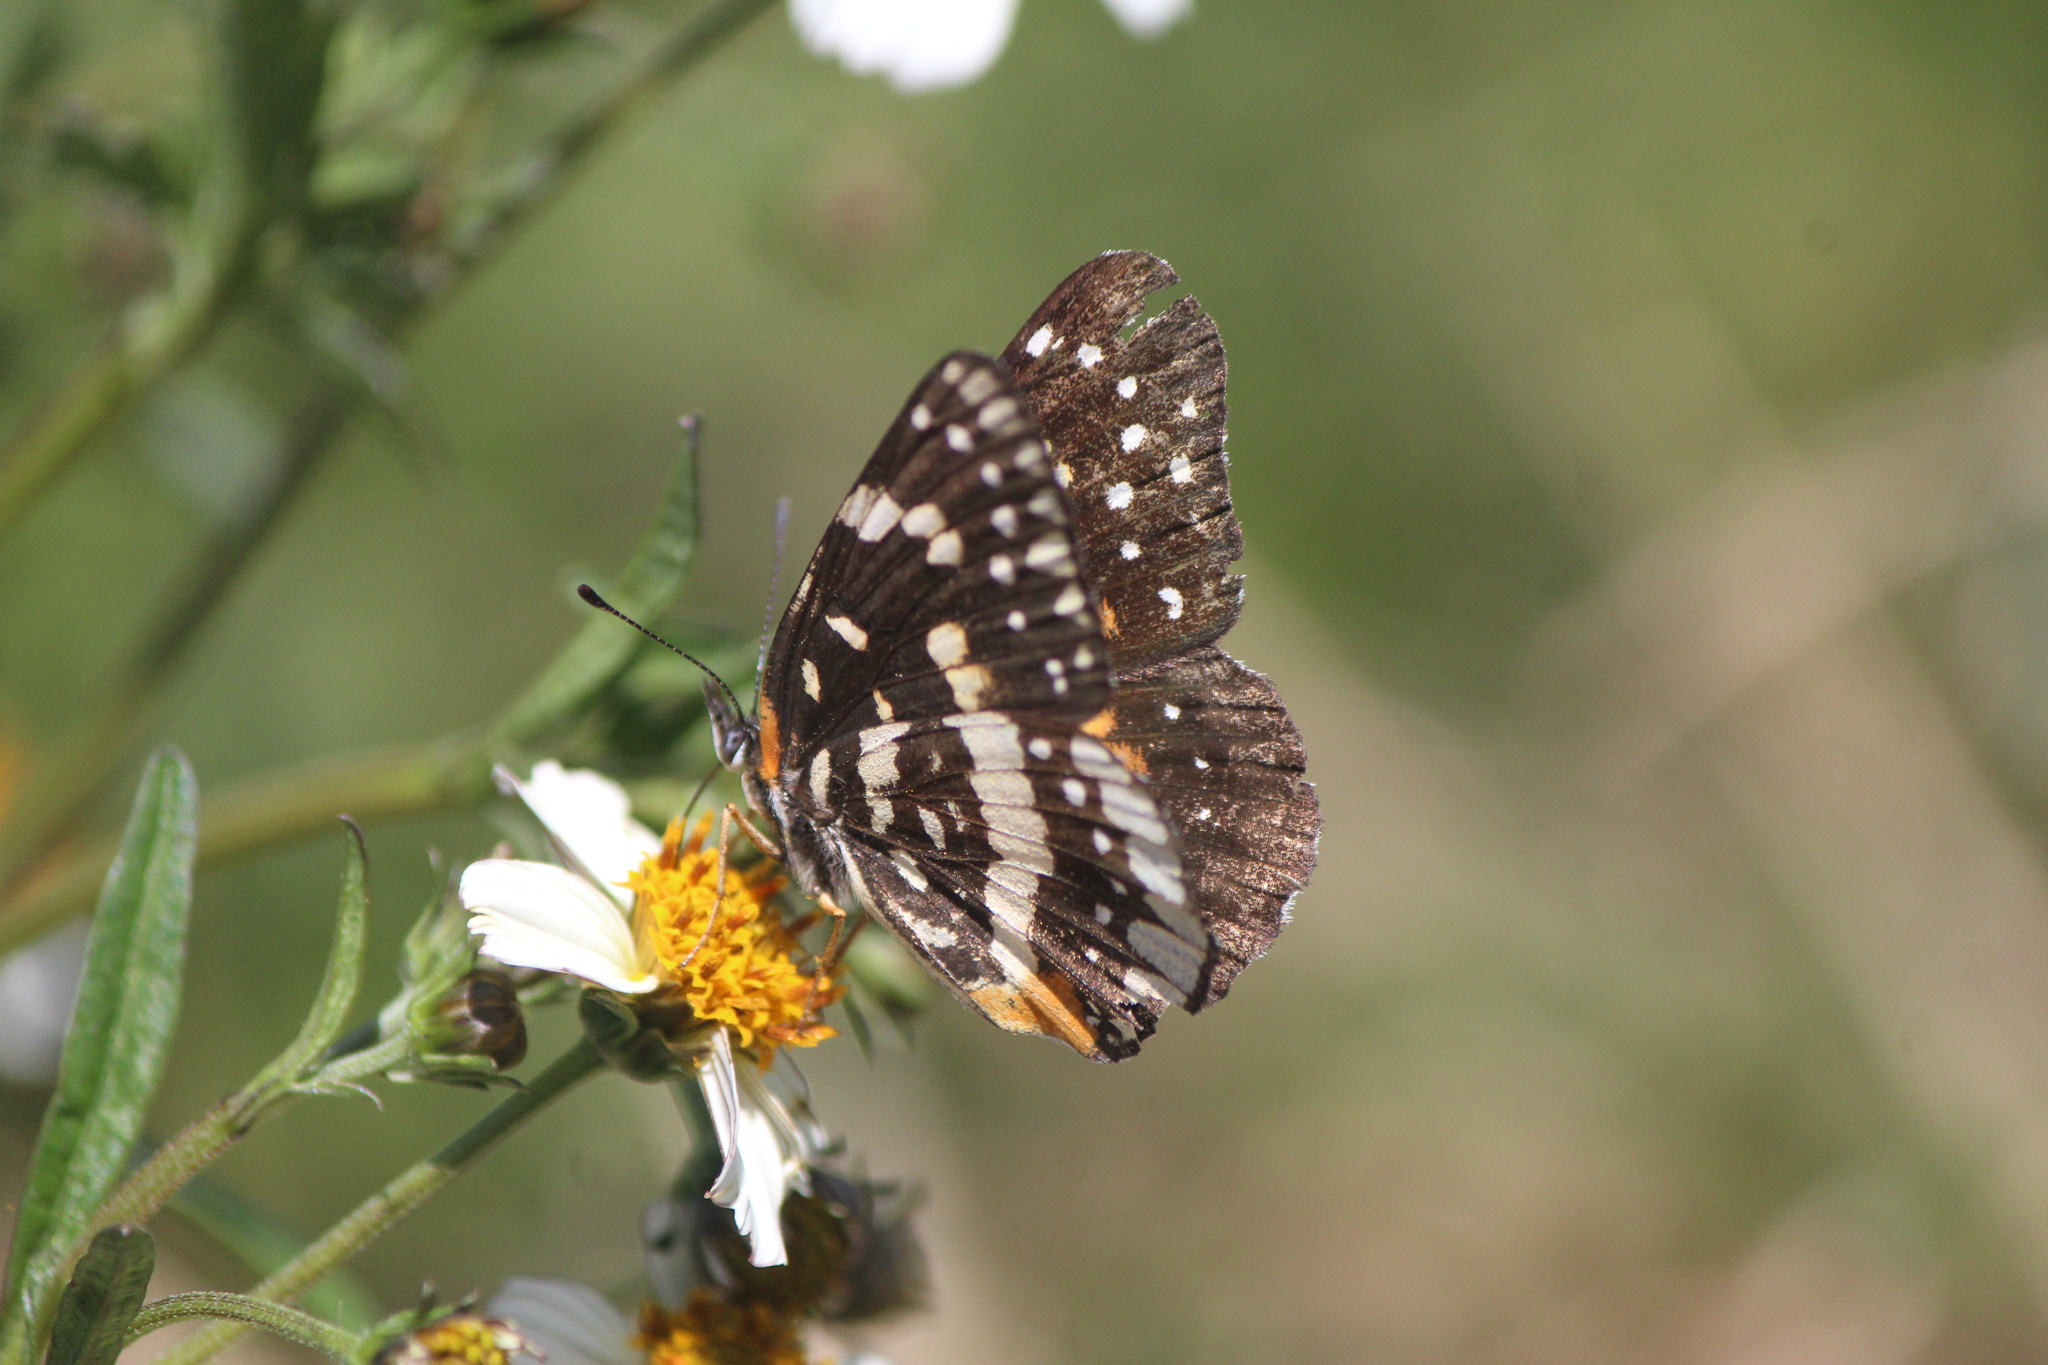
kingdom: Animalia
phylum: Arthropoda
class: Insecta
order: Lepidoptera
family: Nymphalidae
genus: Chlosyne
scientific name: Chlosyne lacinia
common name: Bordered patch
